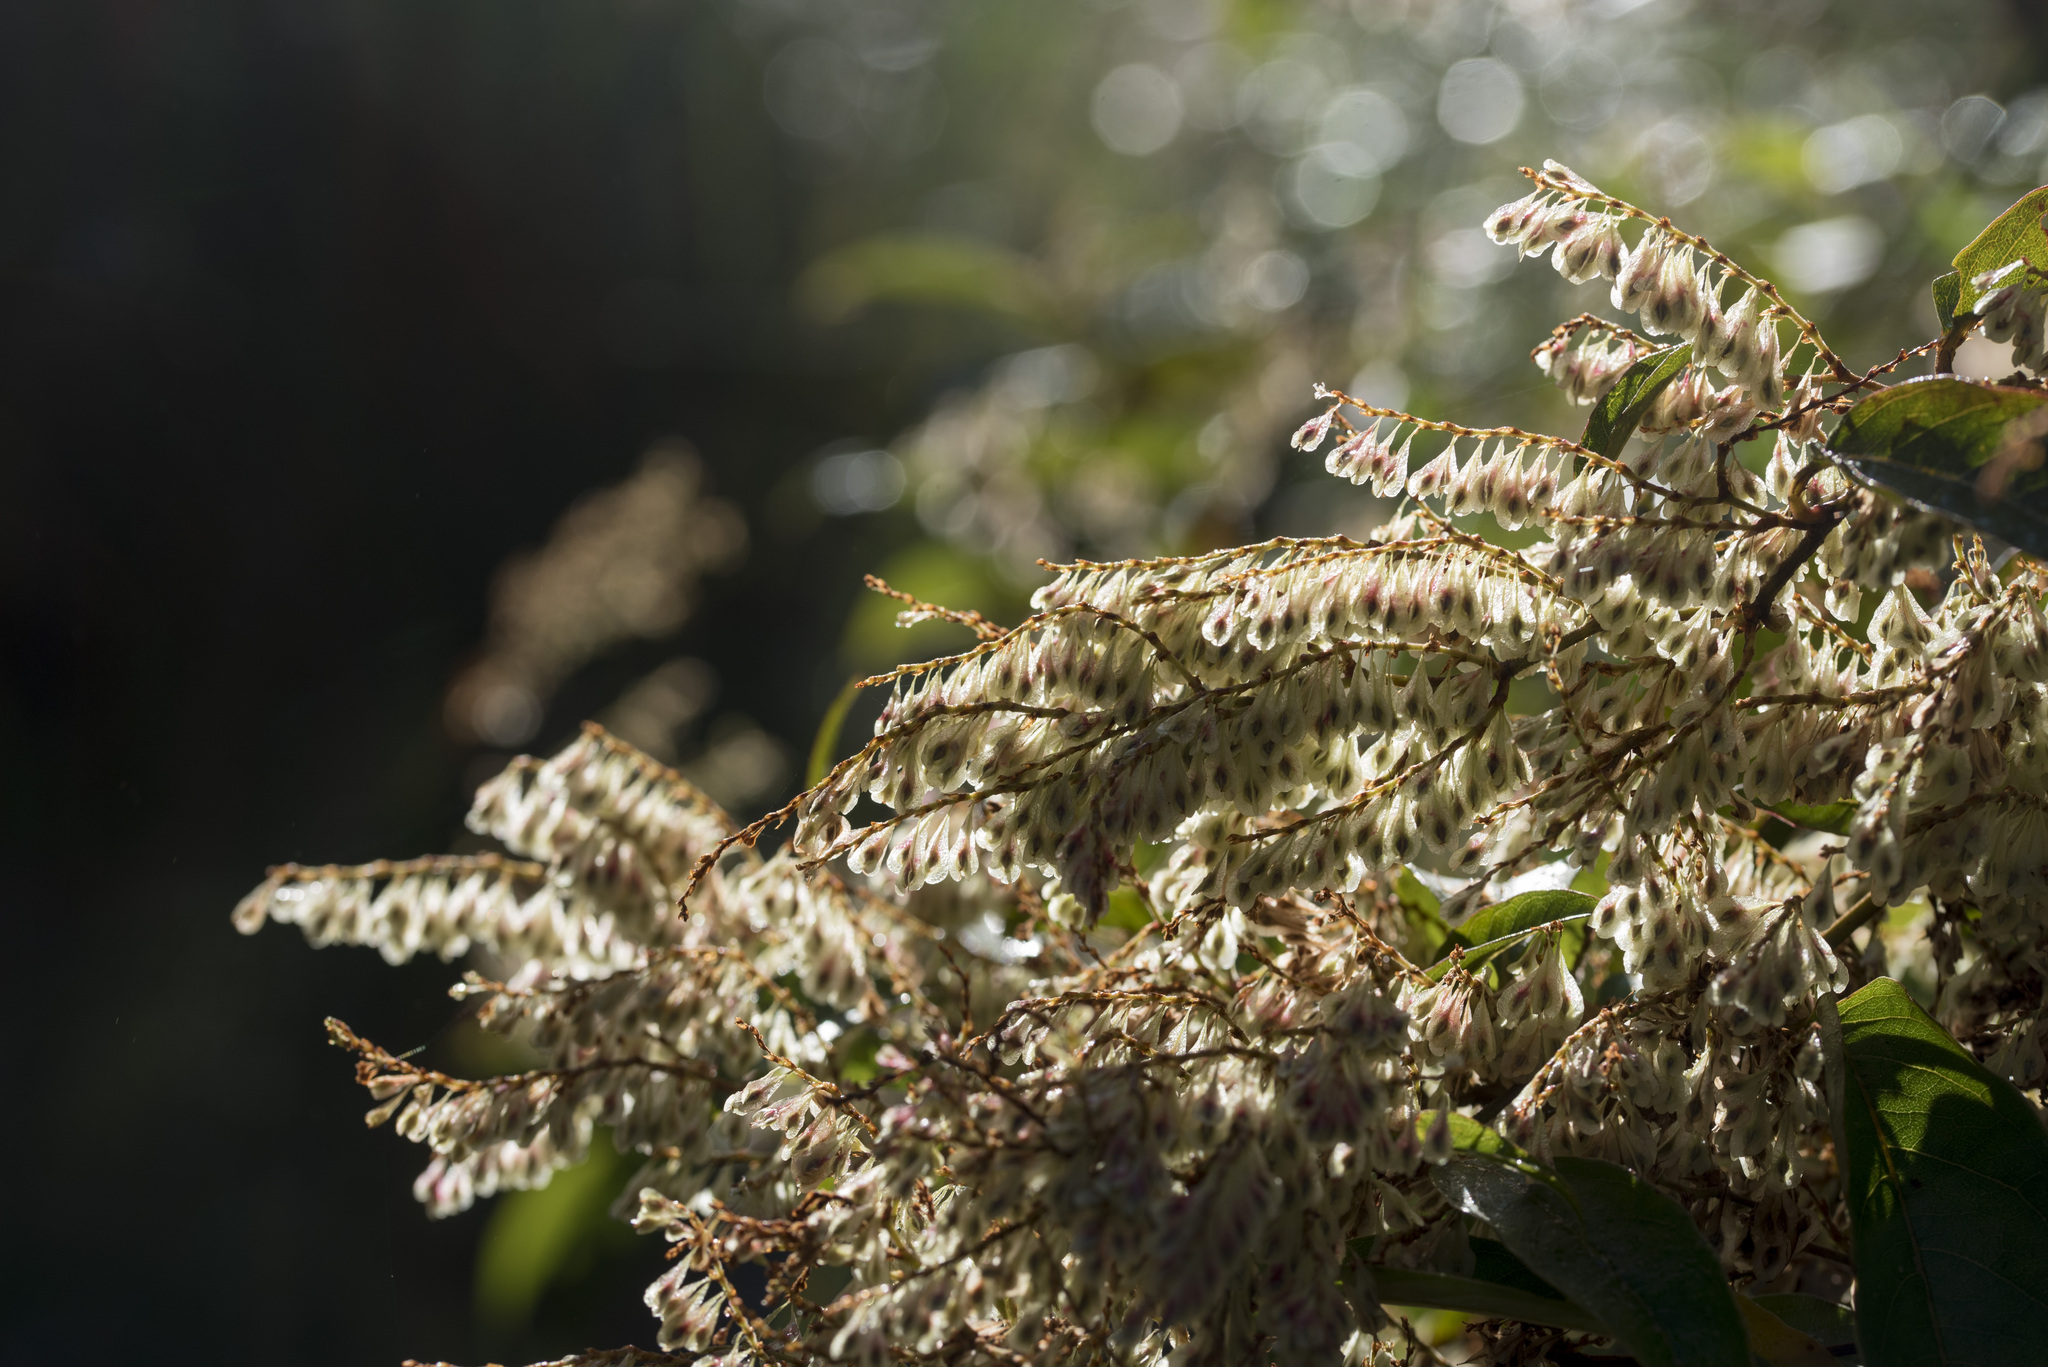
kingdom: Plantae
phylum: Tracheophyta
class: Magnoliopsida
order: Caryophyllales
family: Polygonaceae
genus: Reynoutria
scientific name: Reynoutria japonica
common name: Japanese knotweed
